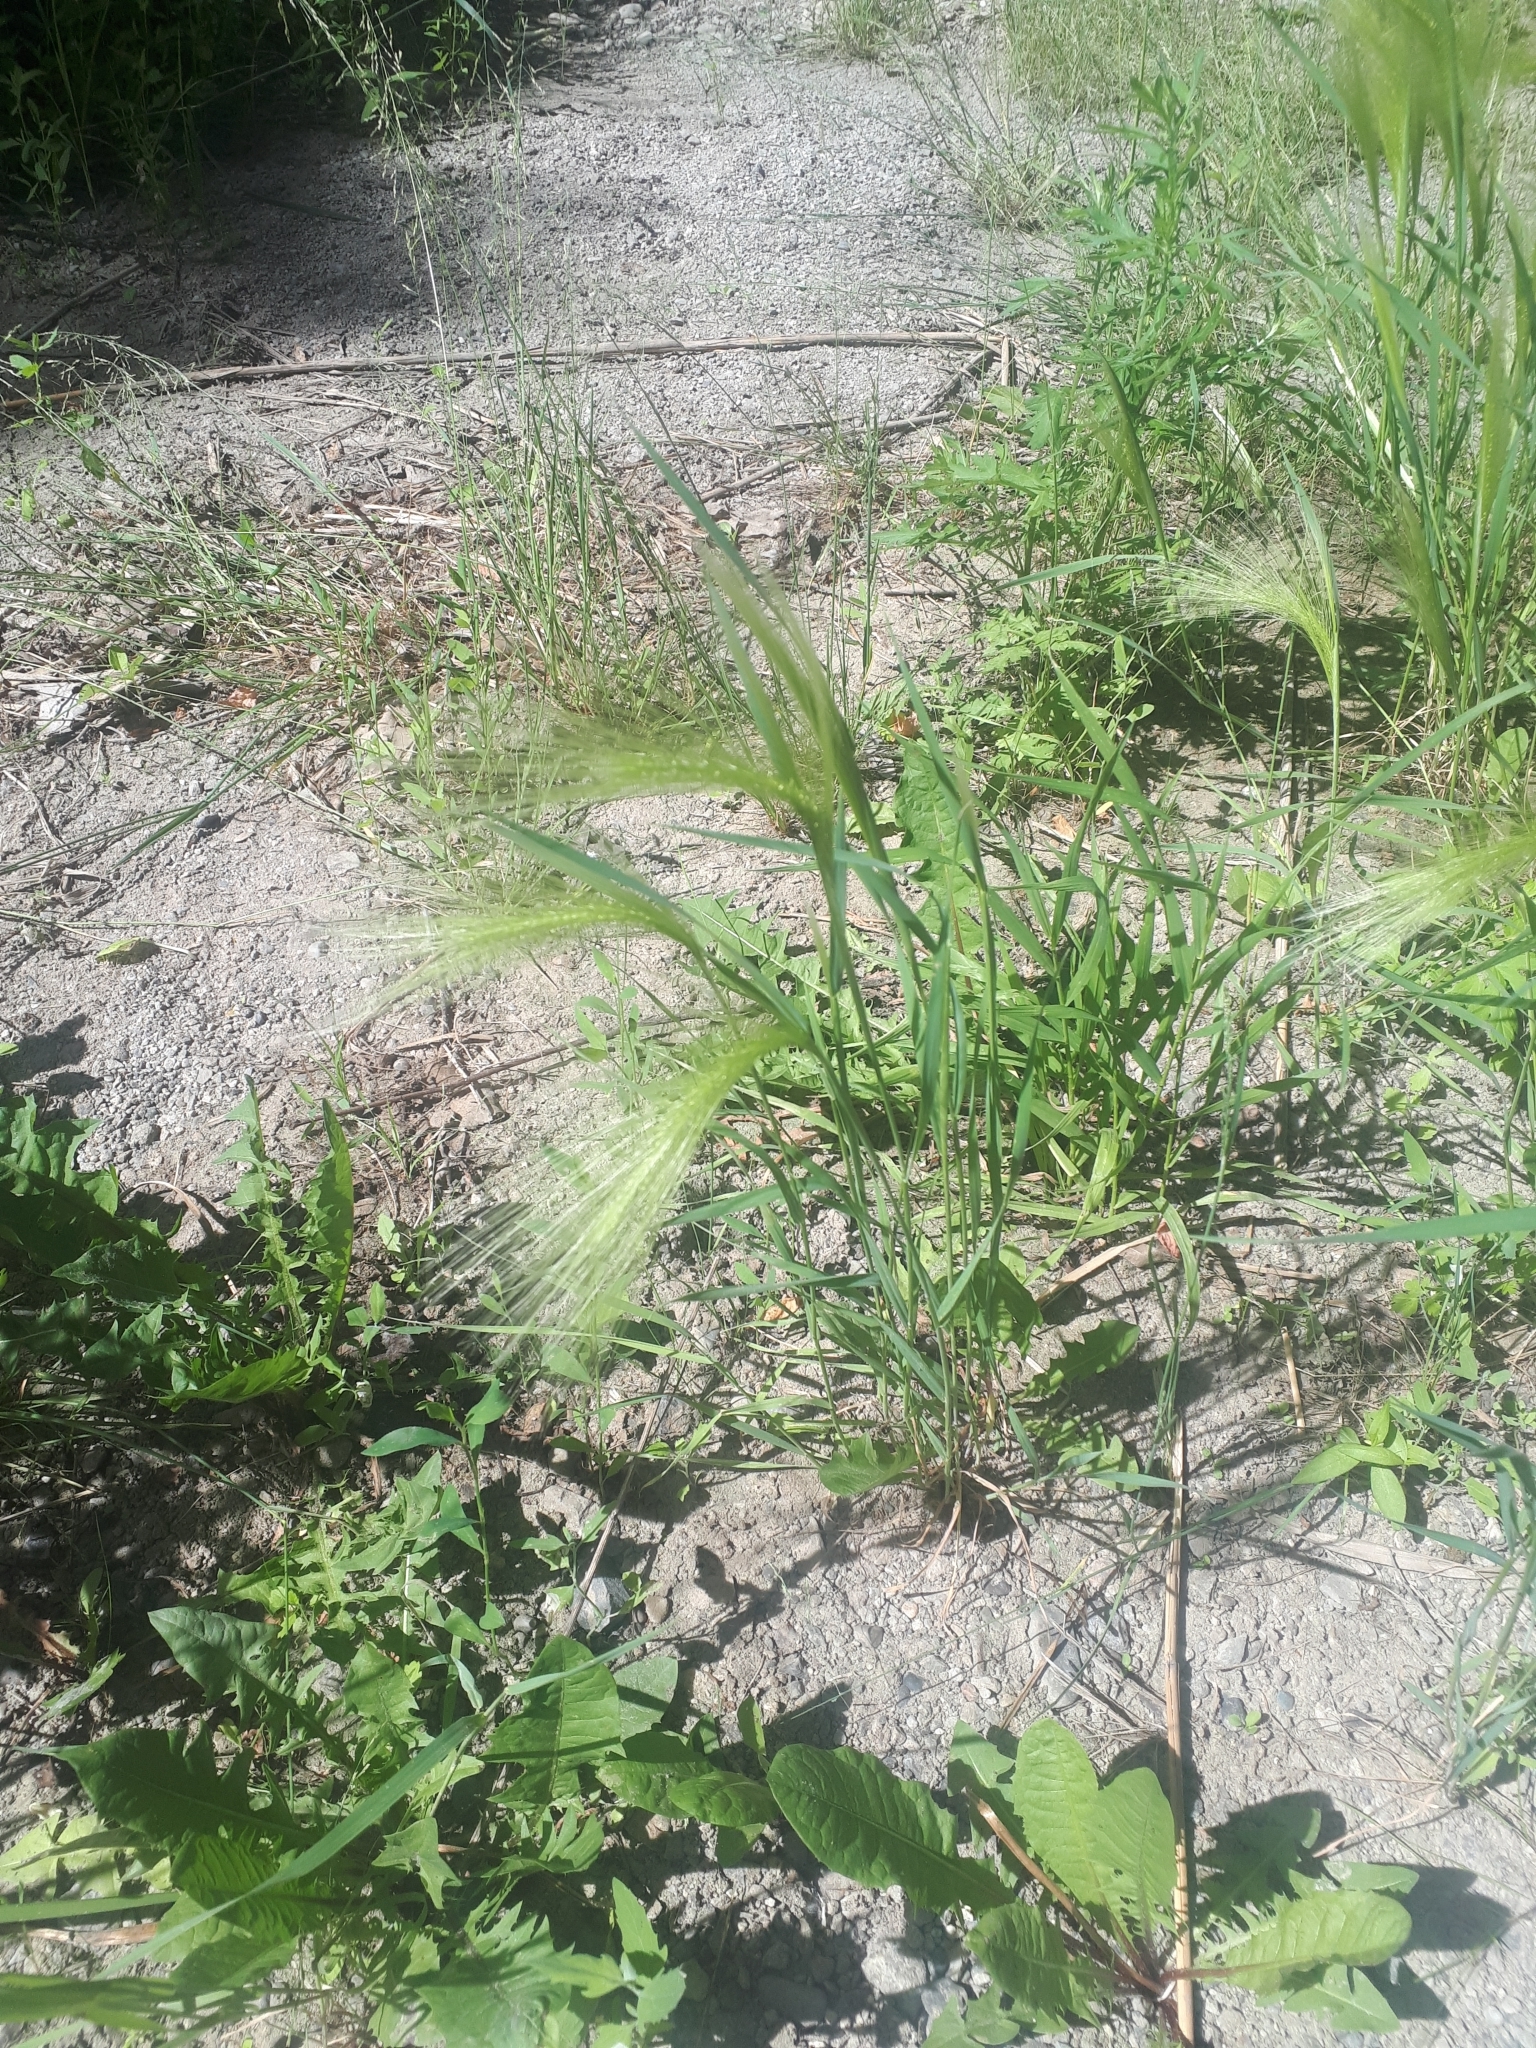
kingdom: Plantae
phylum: Tracheophyta
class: Liliopsida
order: Poales
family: Poaceae
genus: Hordeum
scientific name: Hordeum jubatum
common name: Foxtail barley
